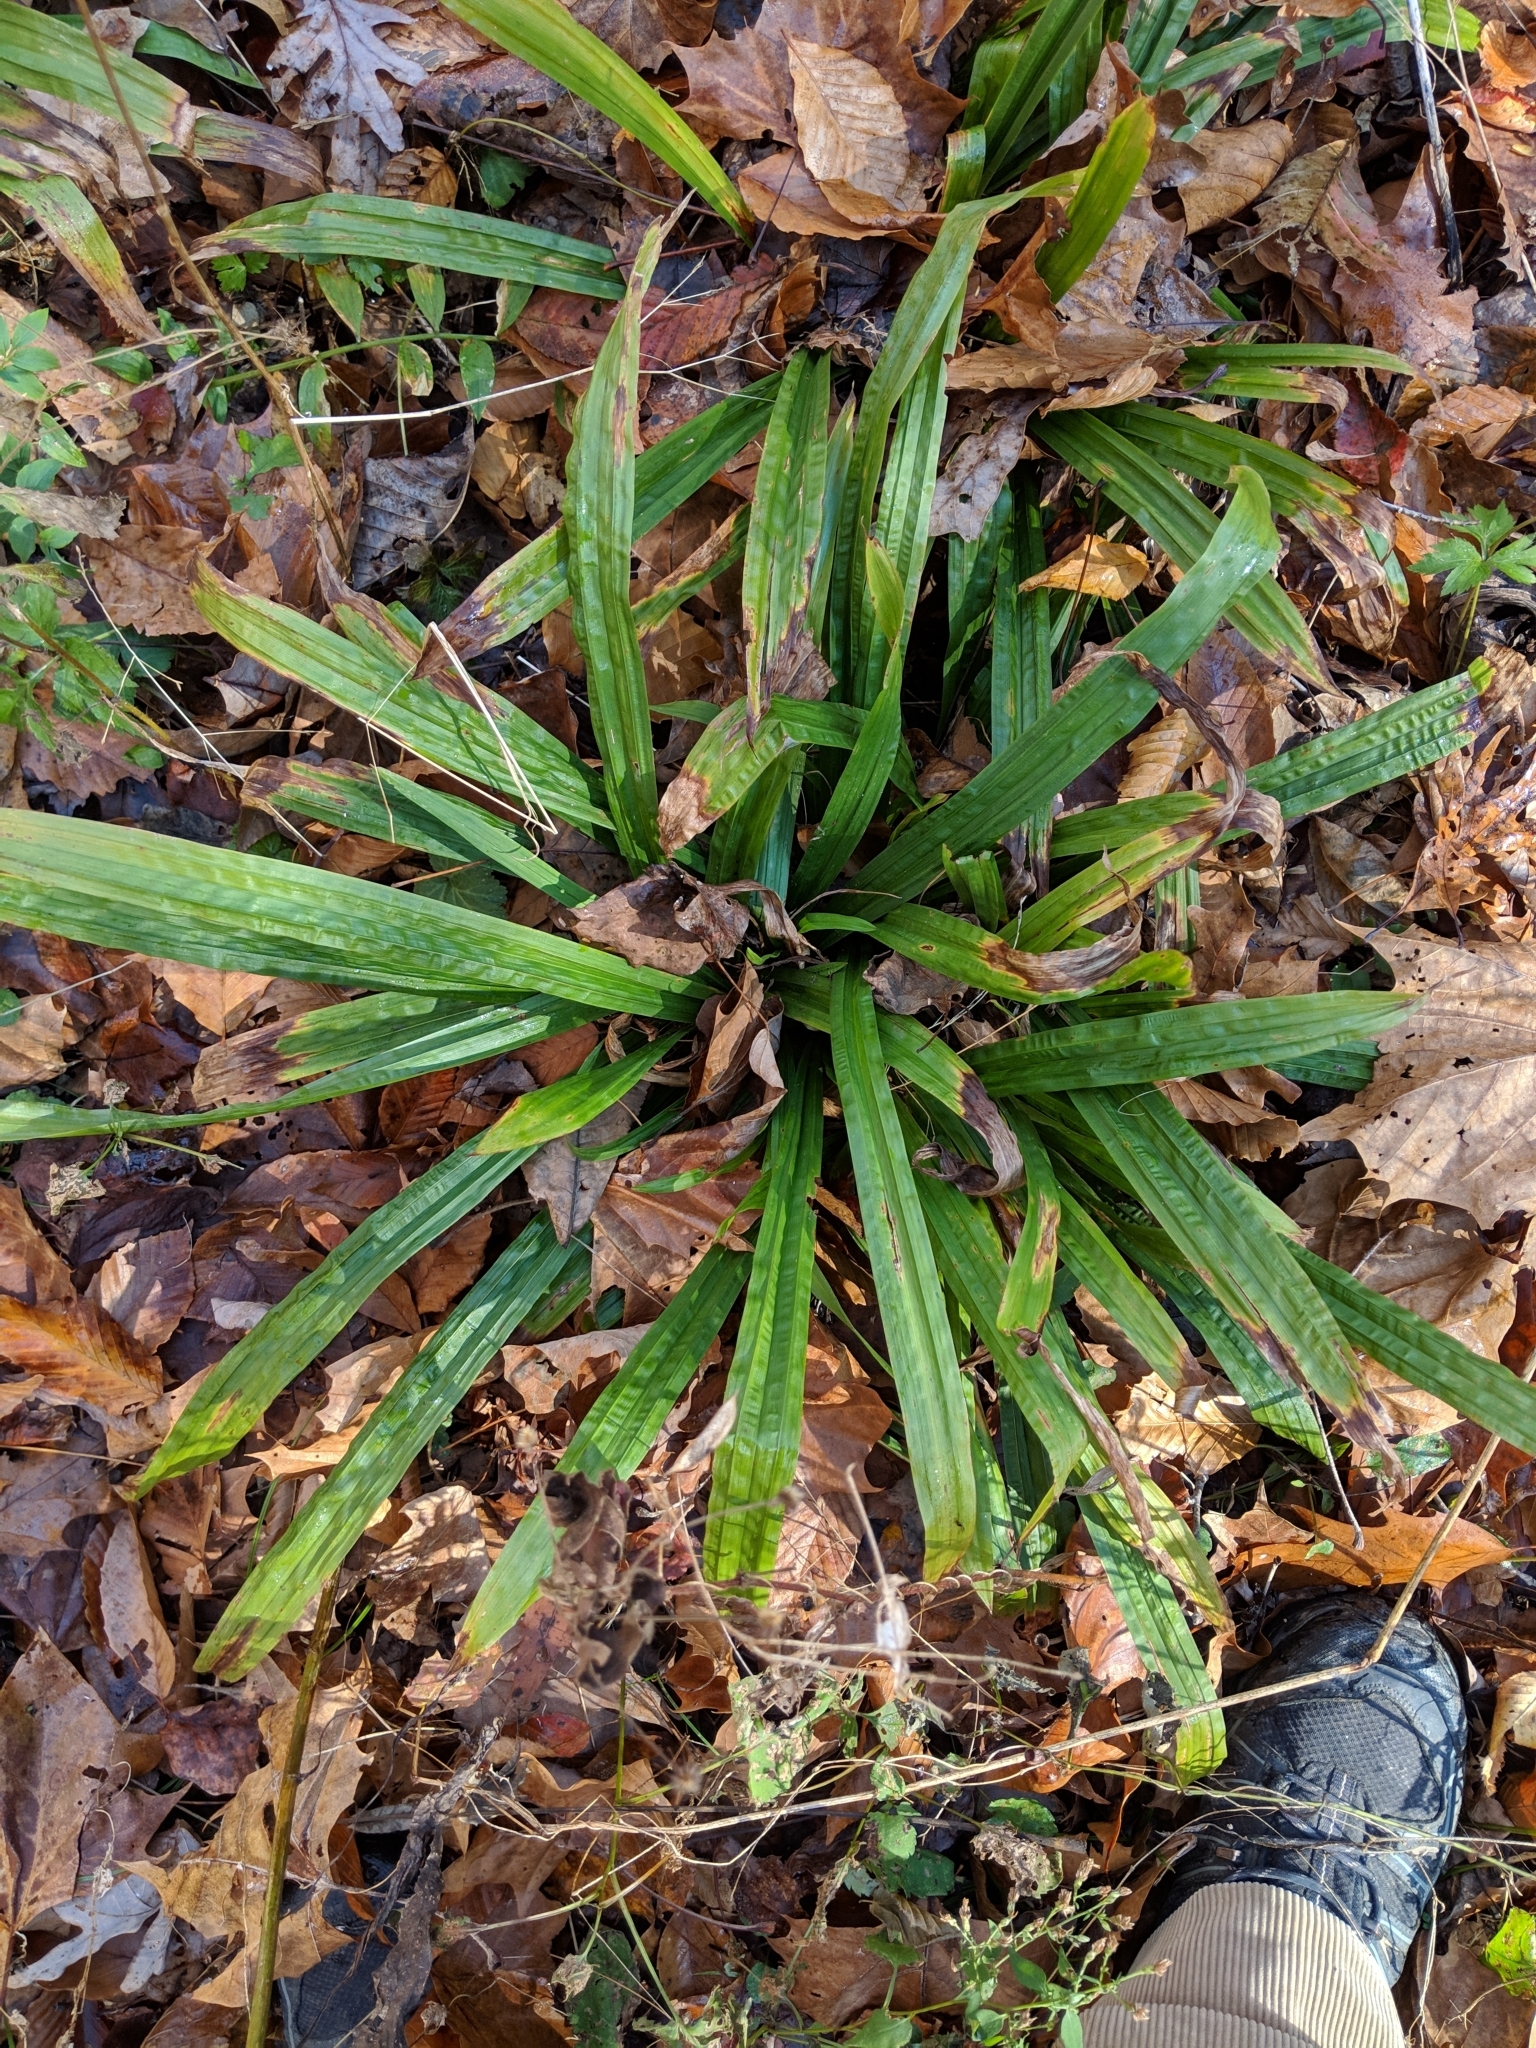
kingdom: Plantae
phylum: Tracheophyta
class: Liliopsida
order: Poales
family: Cyperaceae
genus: Carex
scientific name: Carex plantaginea
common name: Plantain-leaved sedge
